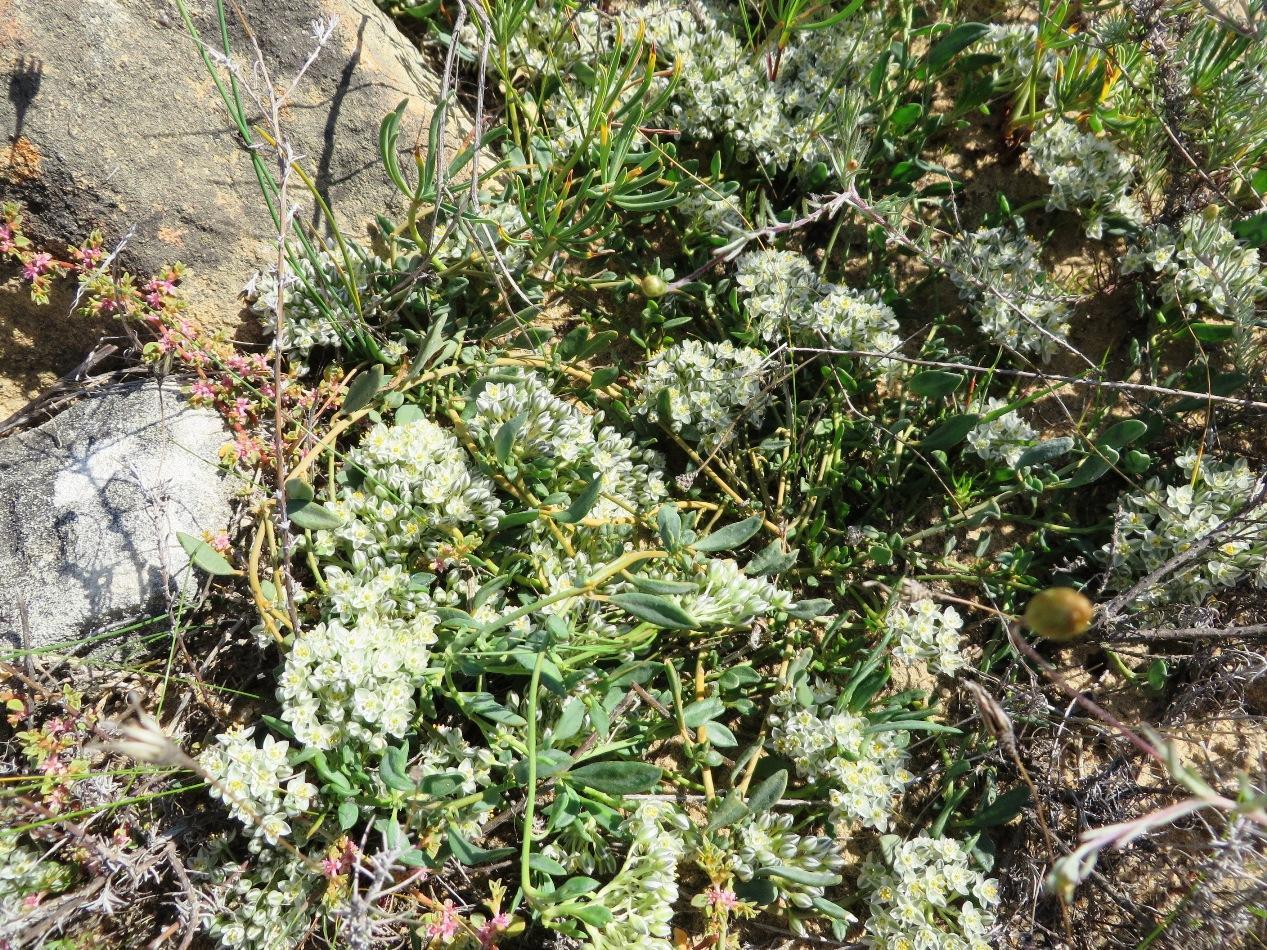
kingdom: Plantae
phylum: Tracheophyta
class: Magnoliopsida
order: Caryophyllales
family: Limeaceae
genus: Limeum
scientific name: Limeum africanum
